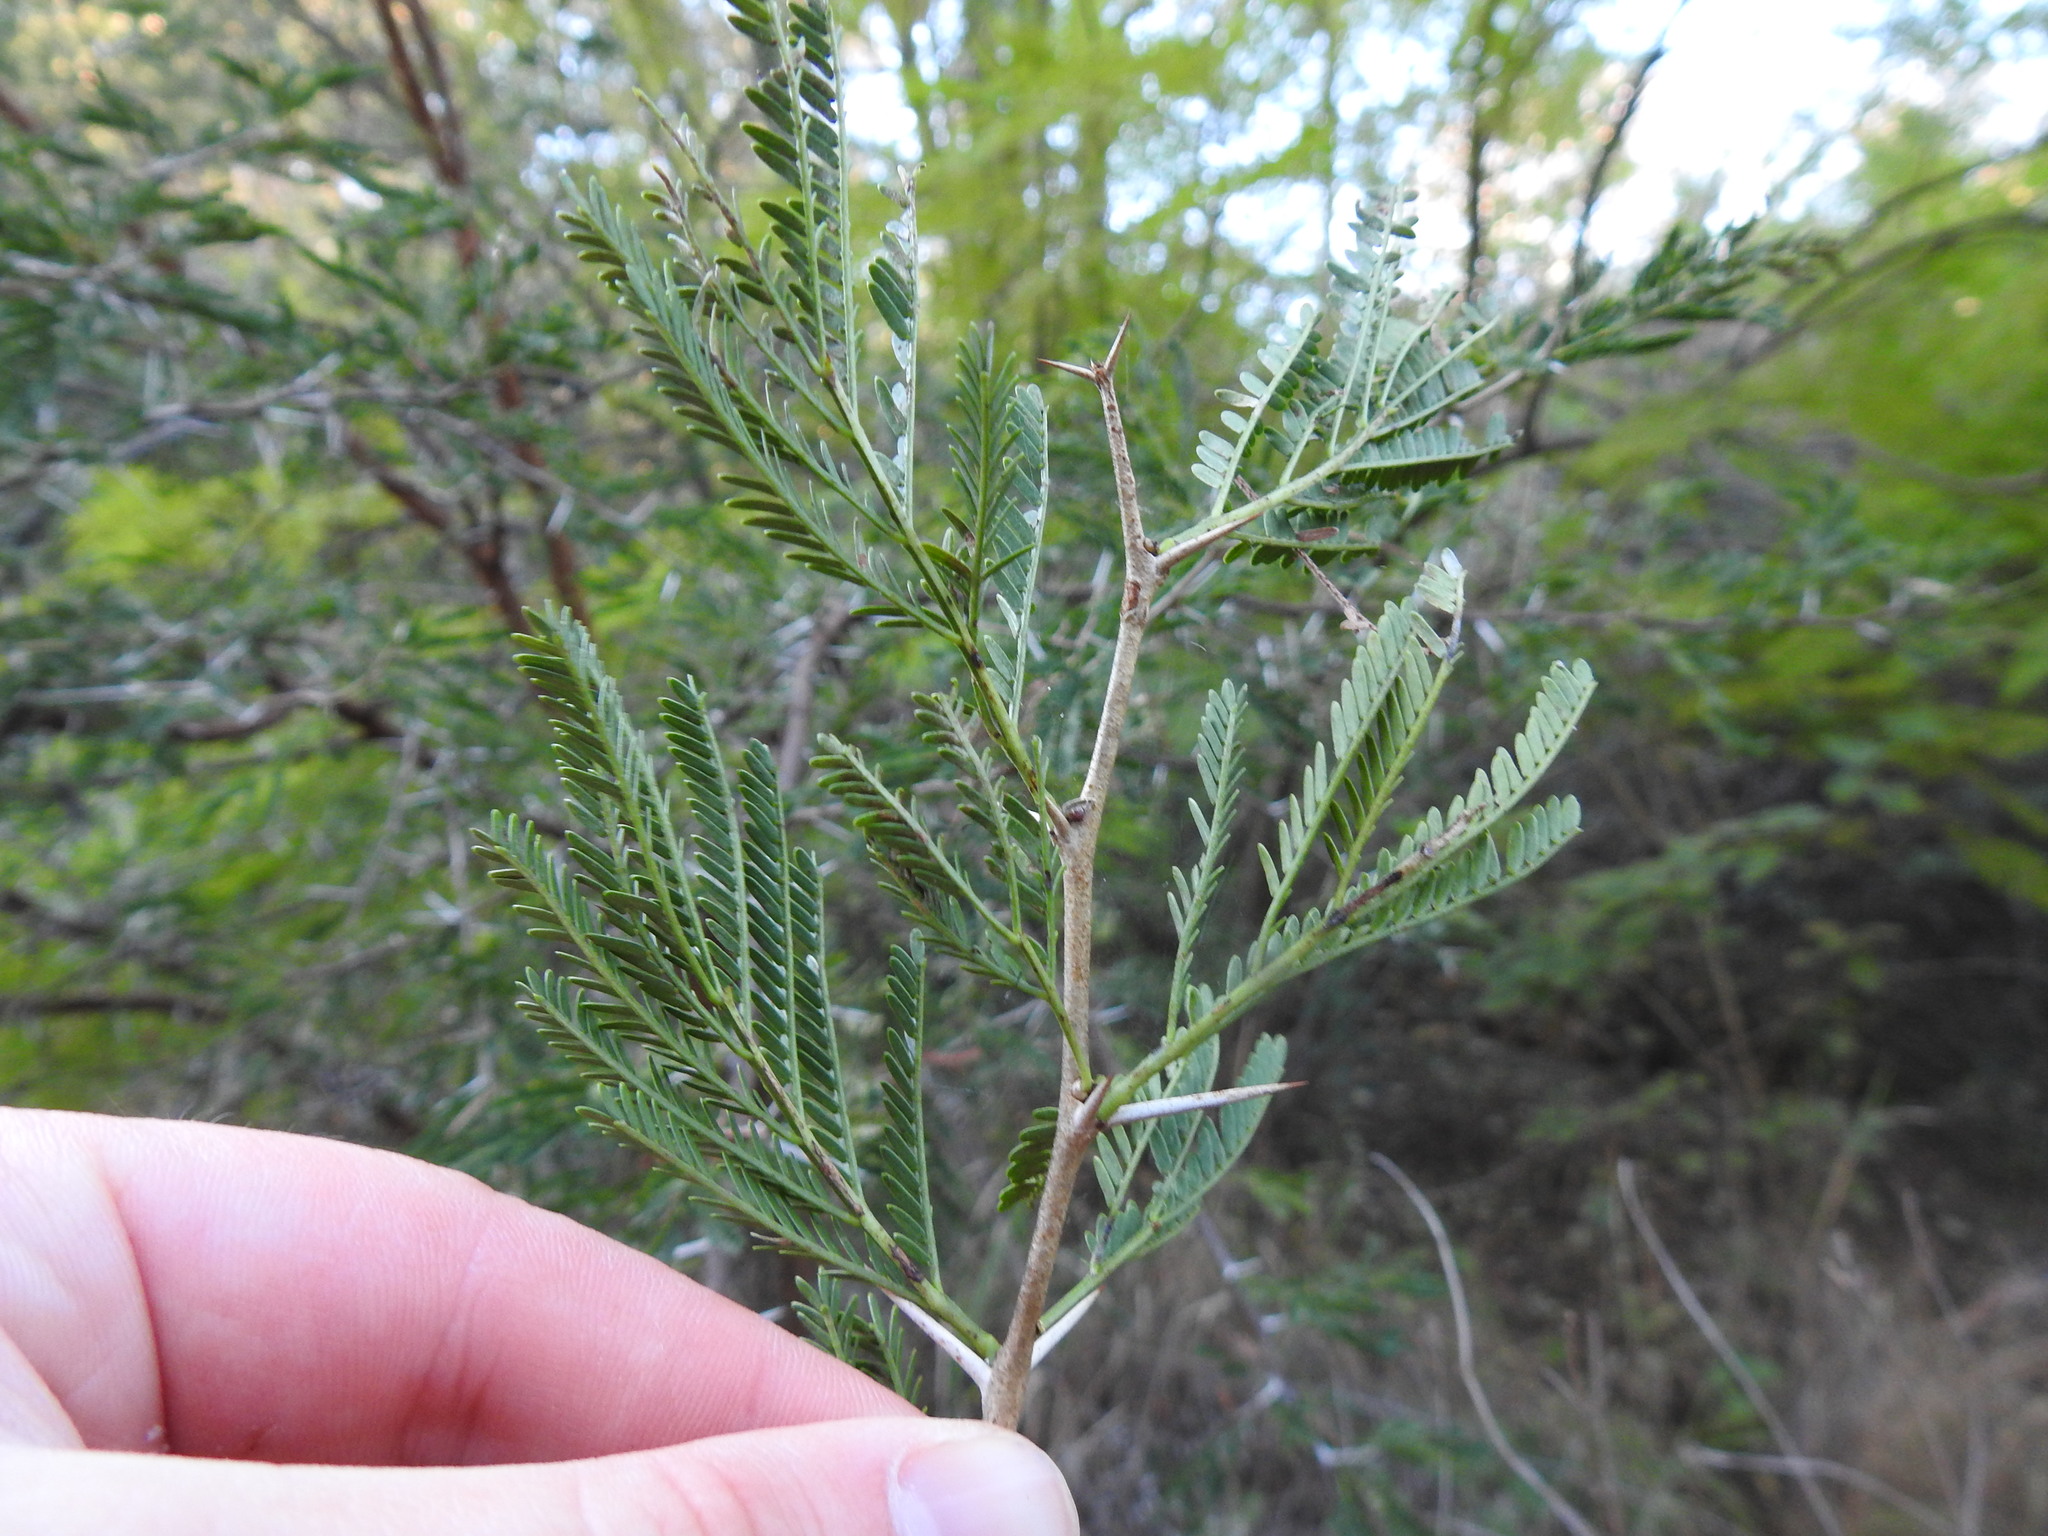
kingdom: Plantae
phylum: Tracheophyta
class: Magnoliopsida
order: Fabales
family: Fabaceae
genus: Vachellia
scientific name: Vachellia karroo
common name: Sweet thorn
